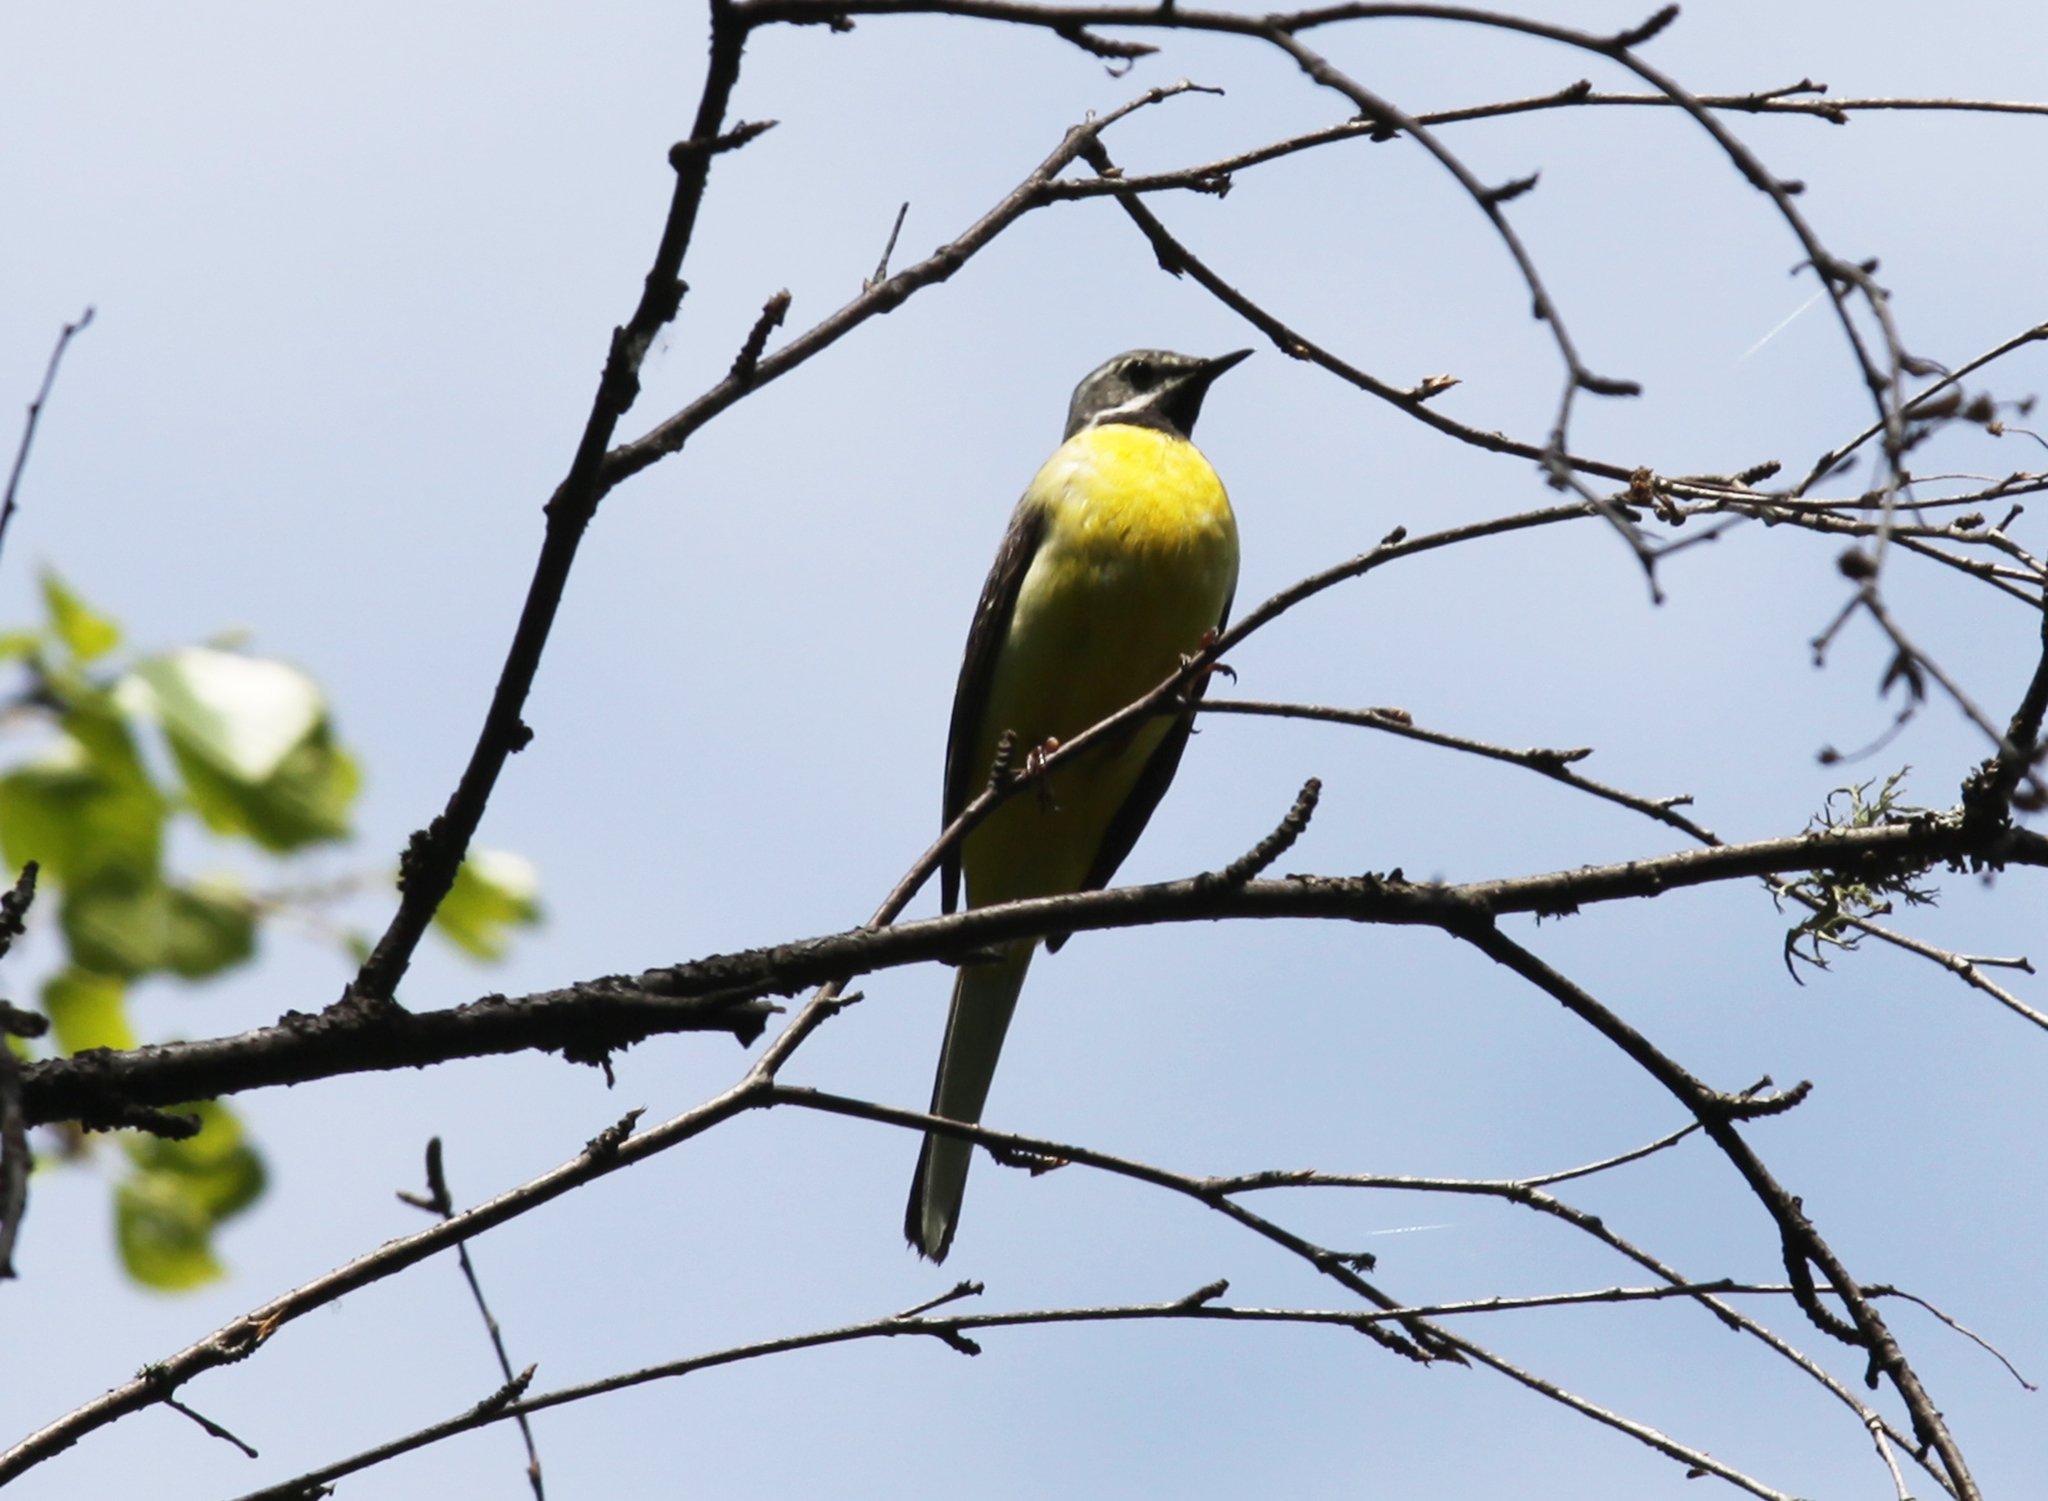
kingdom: Animalia
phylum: Chordata
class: Aves
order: Passeriformes
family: Motacillidae
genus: Motacilla
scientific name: Motacilla cinerea
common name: Grey wagtail
